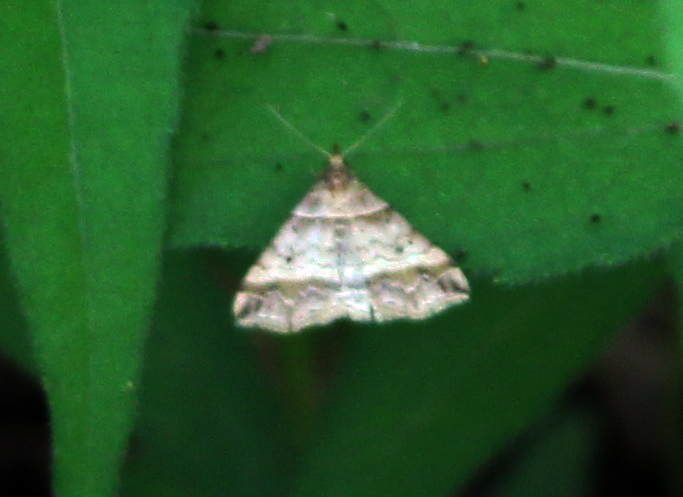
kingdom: Animalia
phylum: Arthropoda
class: Insecta
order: Lepidoptera
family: Erebidae
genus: Phaeolita
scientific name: Phaeolita pyramusalis
